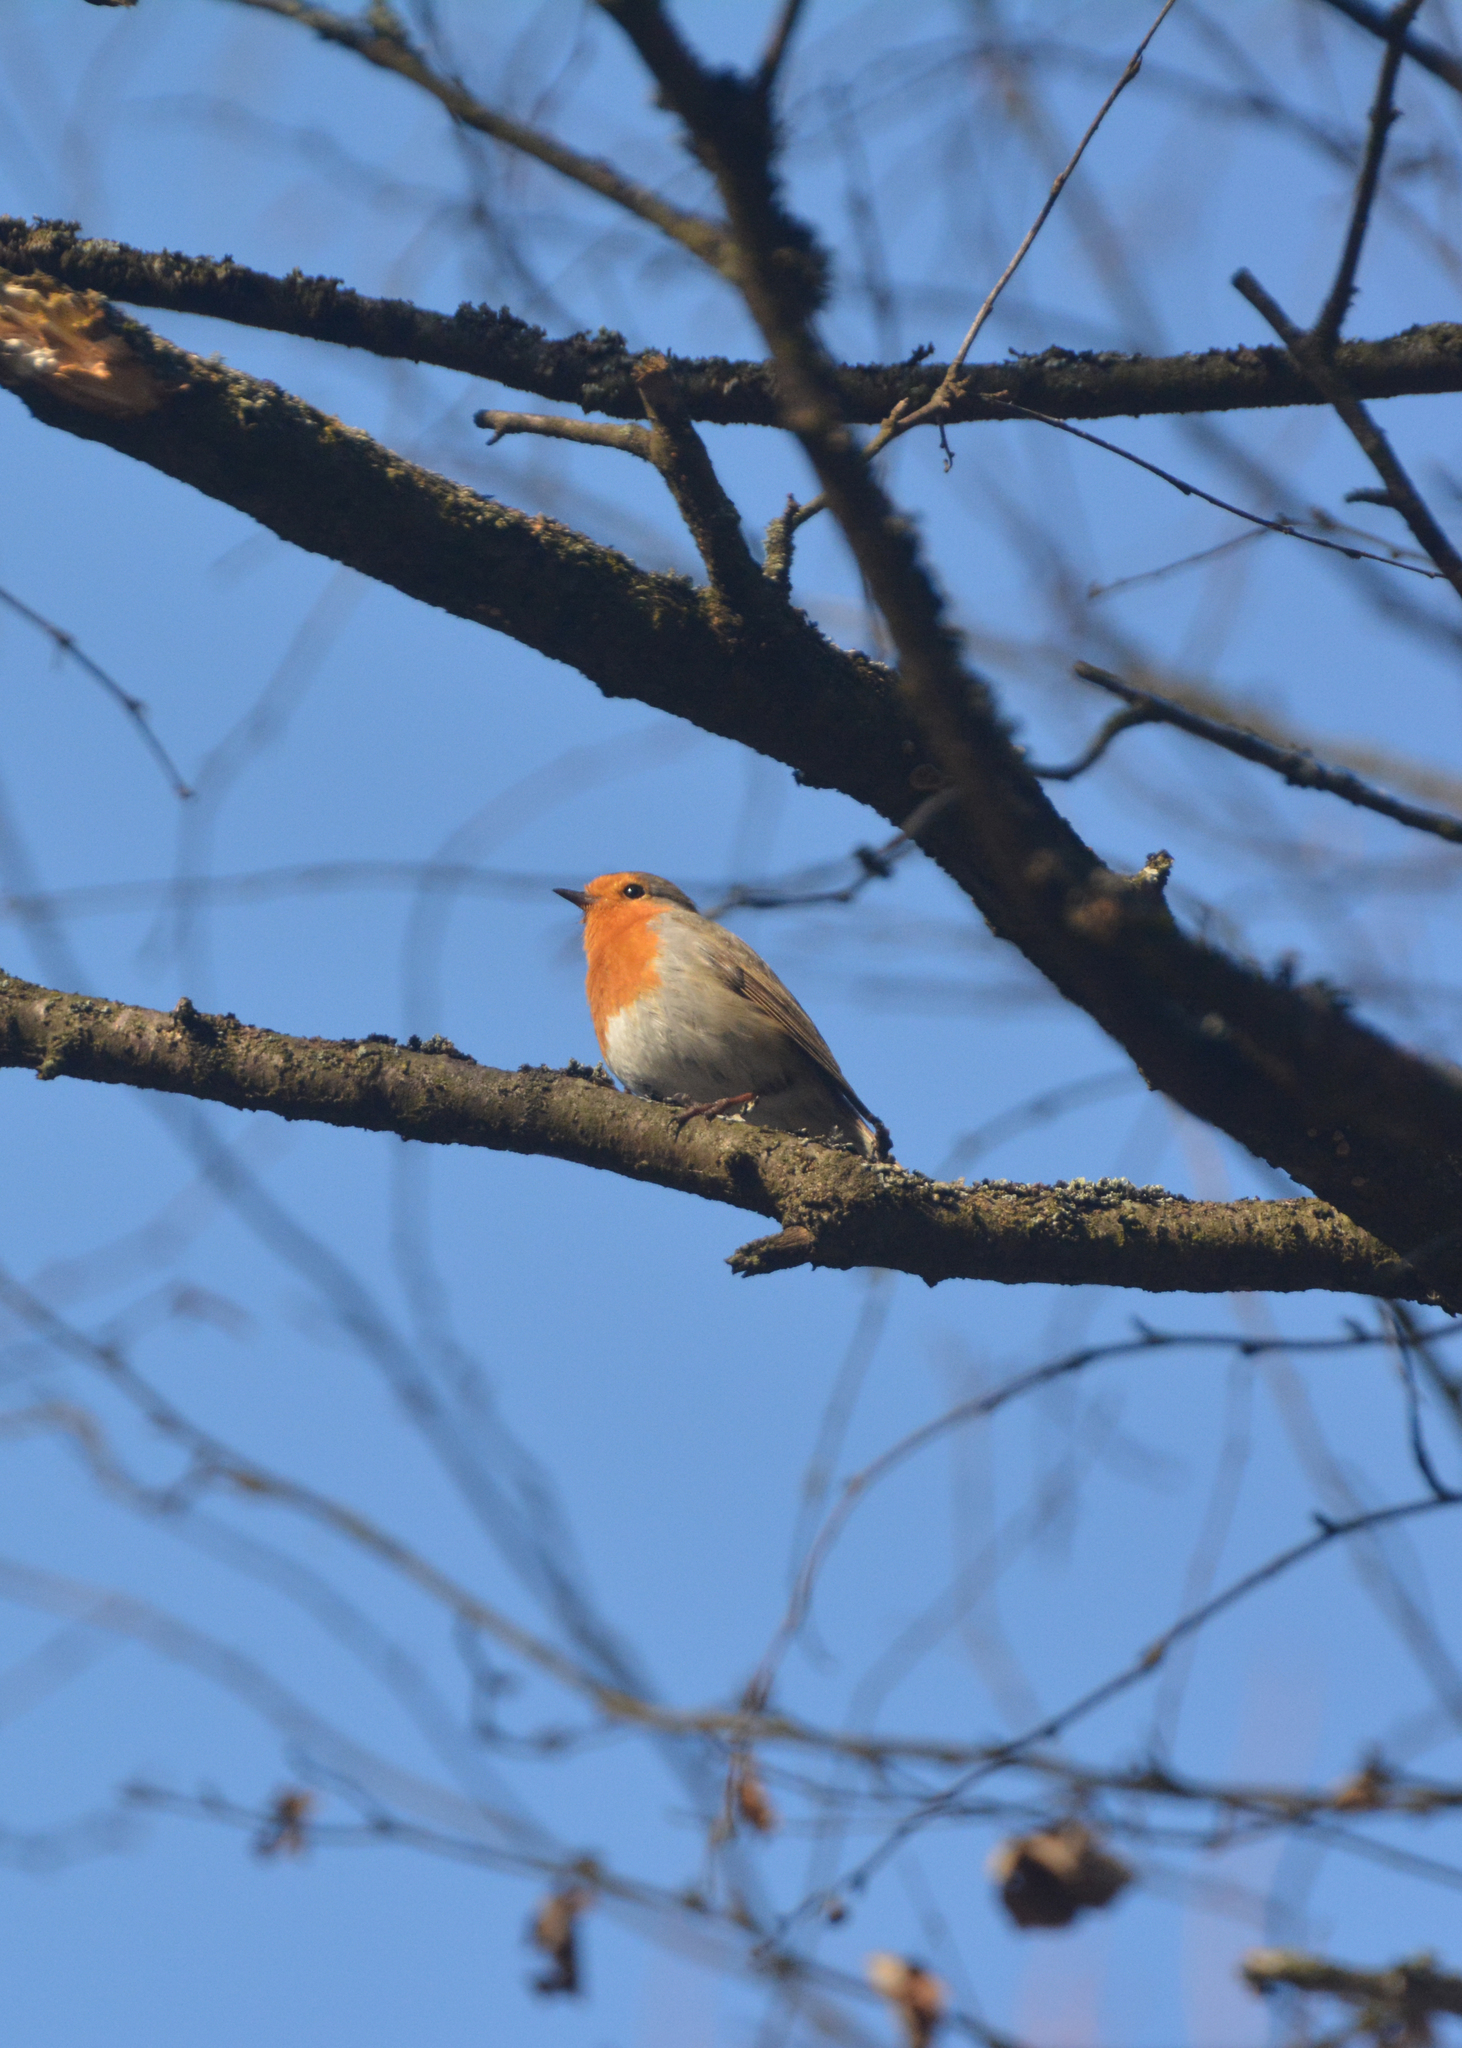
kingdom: Animalia
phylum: Chordata
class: Aves
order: Passeriformes
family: Muscicapidae
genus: Erithacus
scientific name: Erithacus rubecula
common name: European robin
